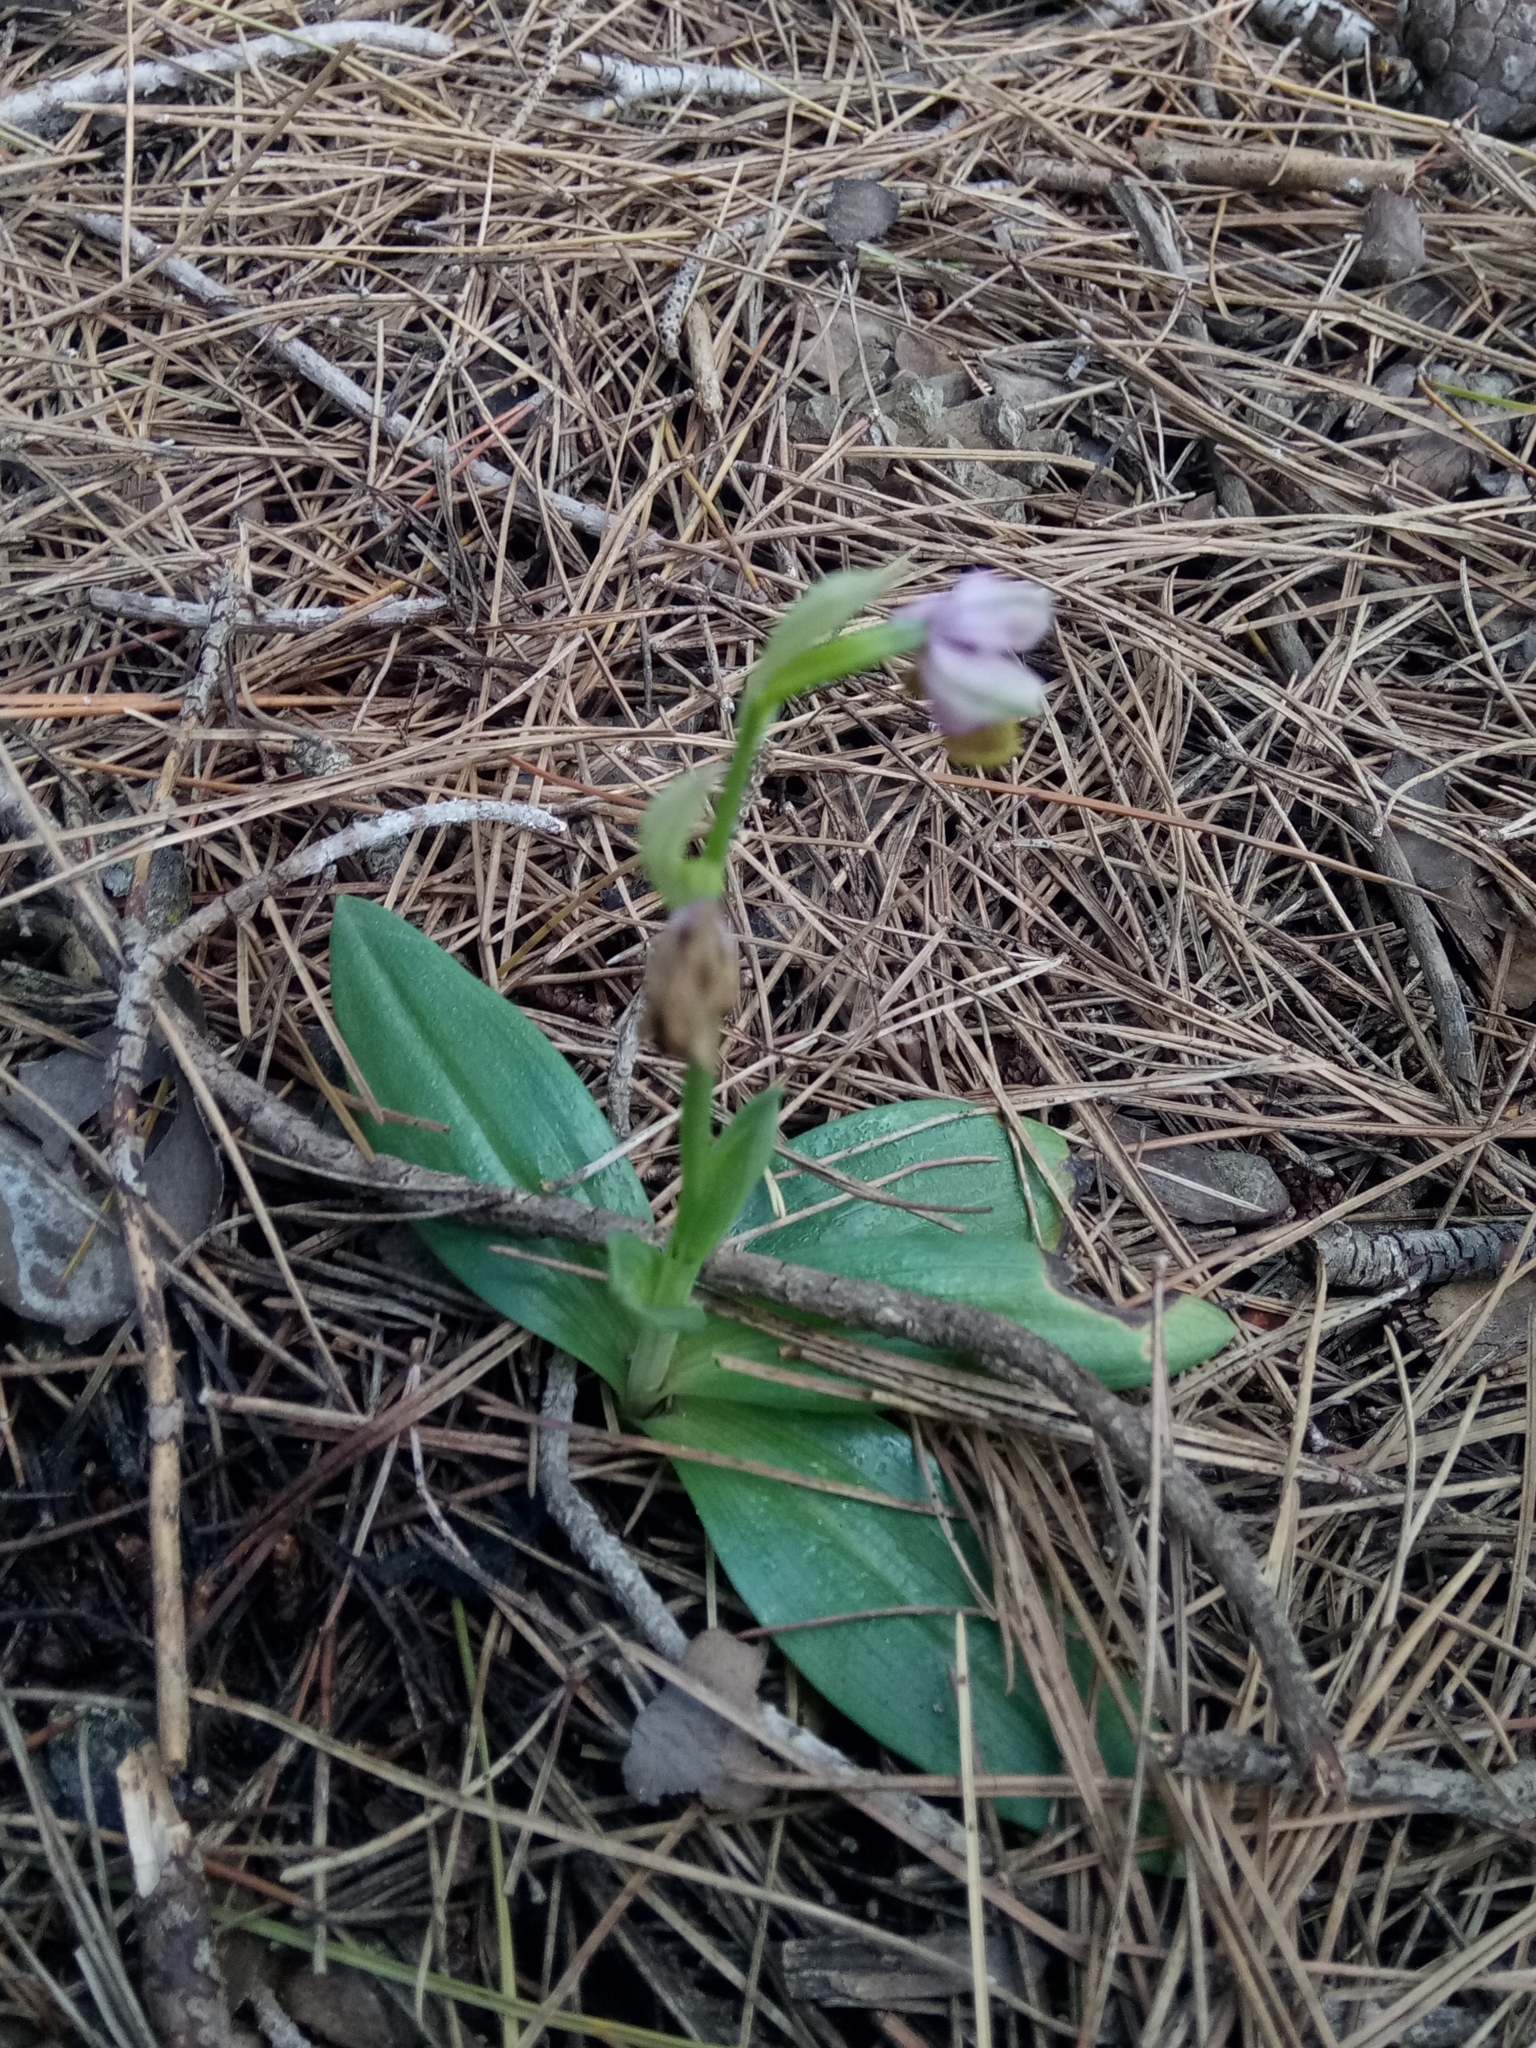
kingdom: Plantae
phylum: Tracheophyta
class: Liliopsida
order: Asparagales
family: Orchidaceae
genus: Ophrys
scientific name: Ophrys tenthredinifera
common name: Sawfly orchid
